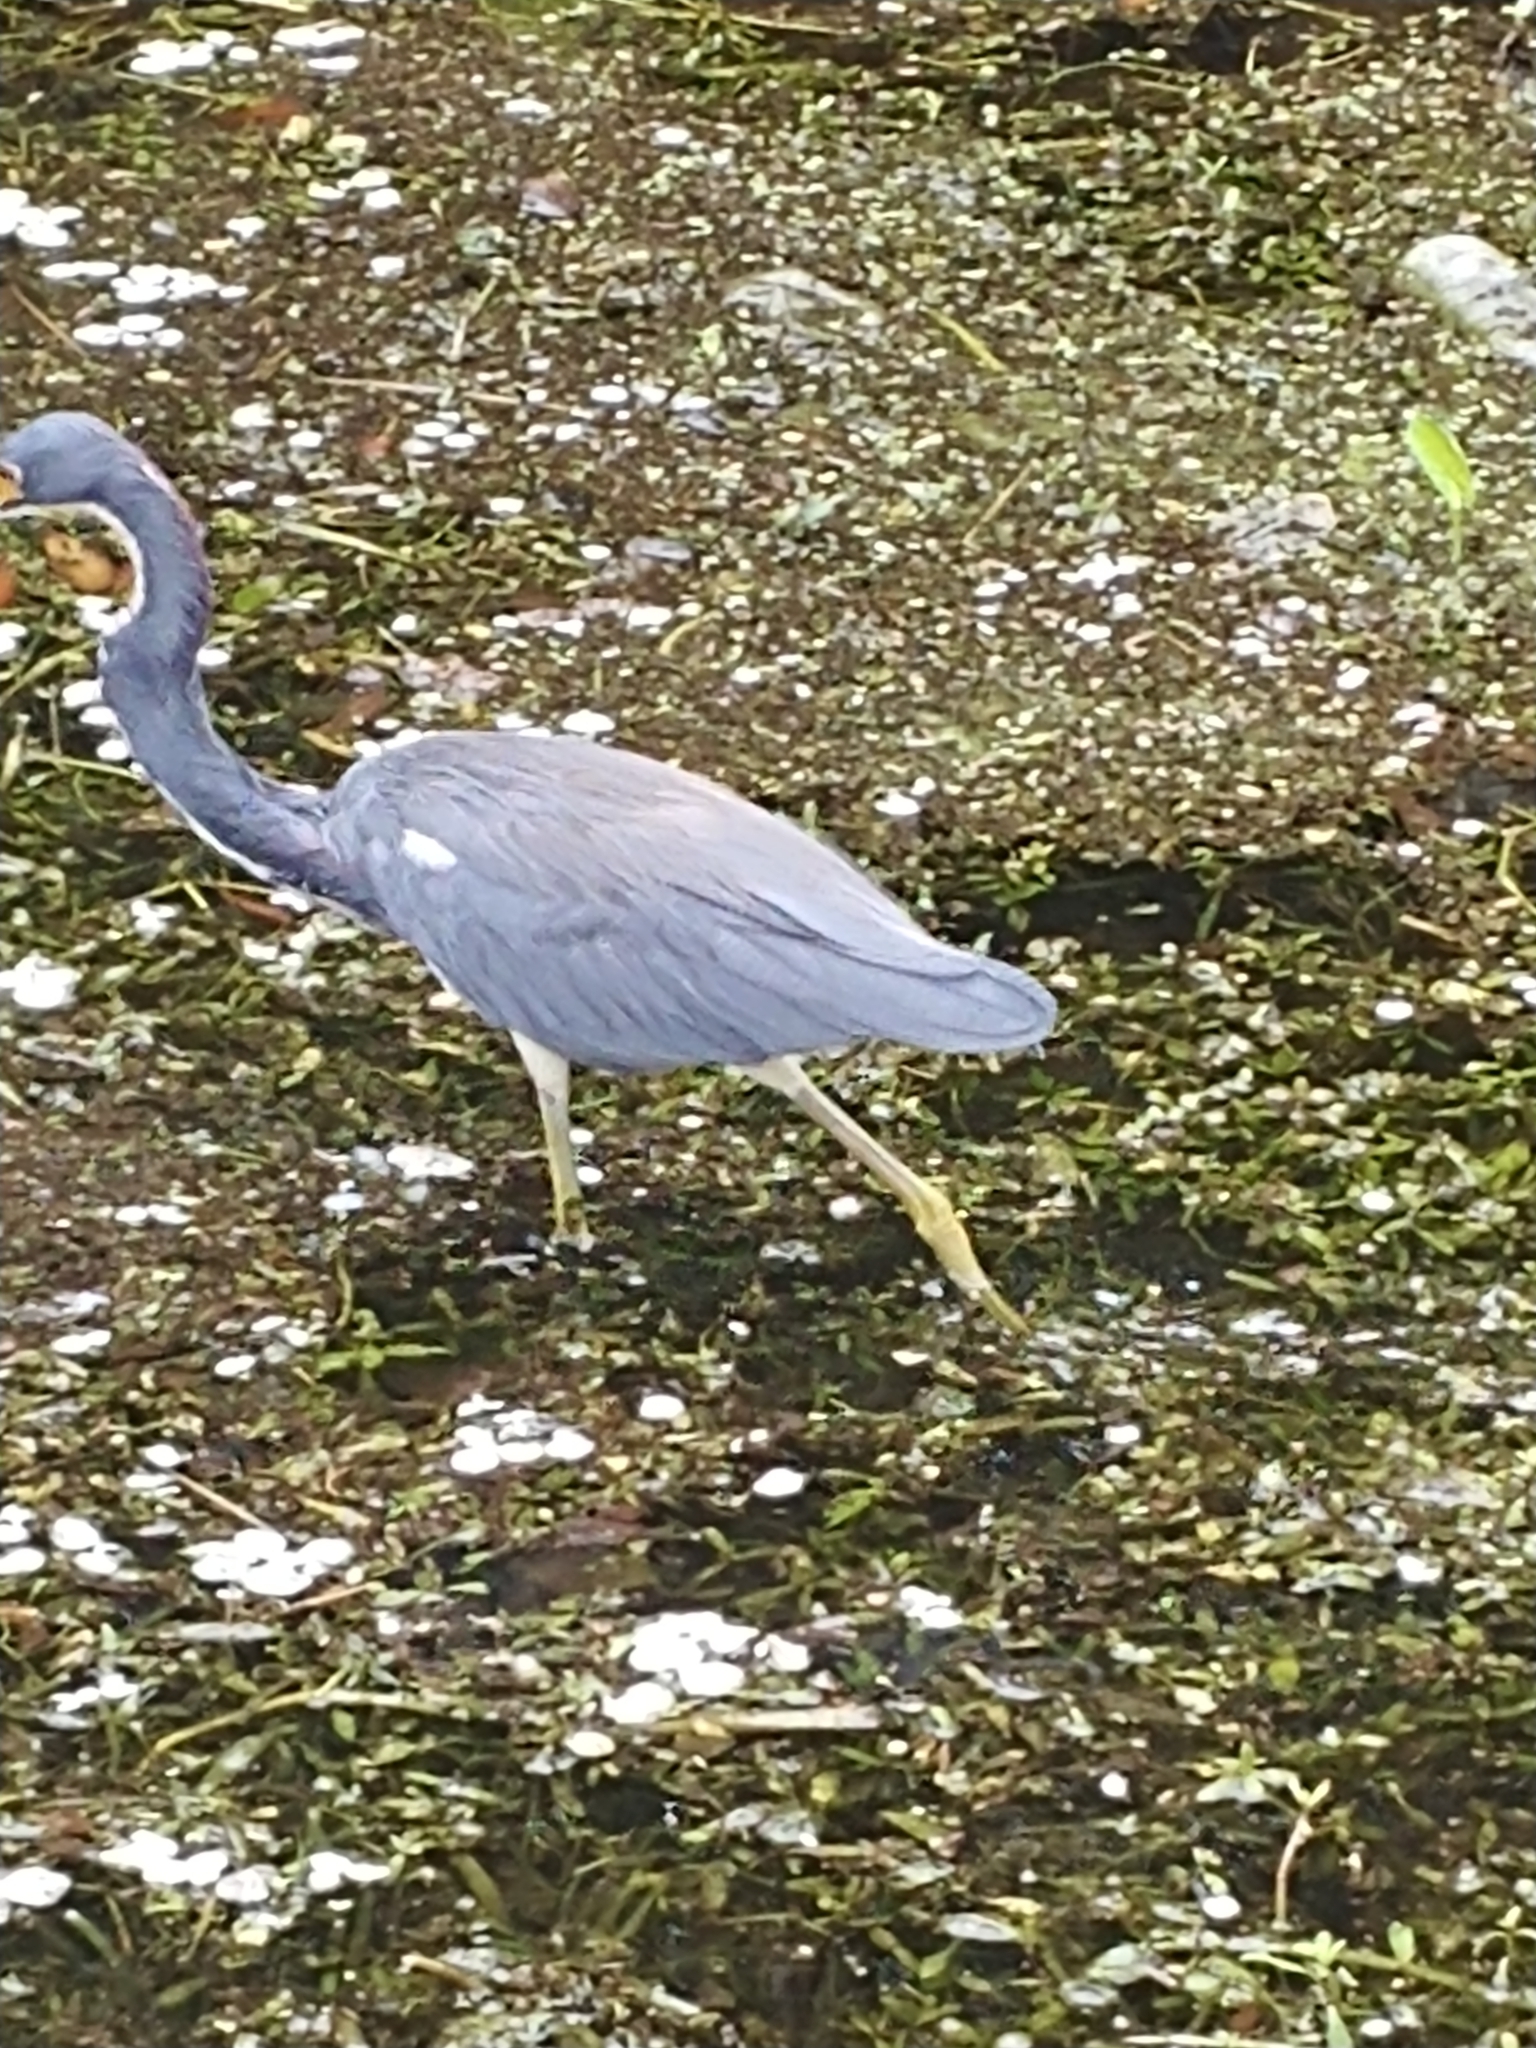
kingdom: Animalia
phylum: Chordata
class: Aves
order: Pelecaniformes
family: Ardeidae
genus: Egretta
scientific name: Egretta tricolor
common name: Tricolored heron
